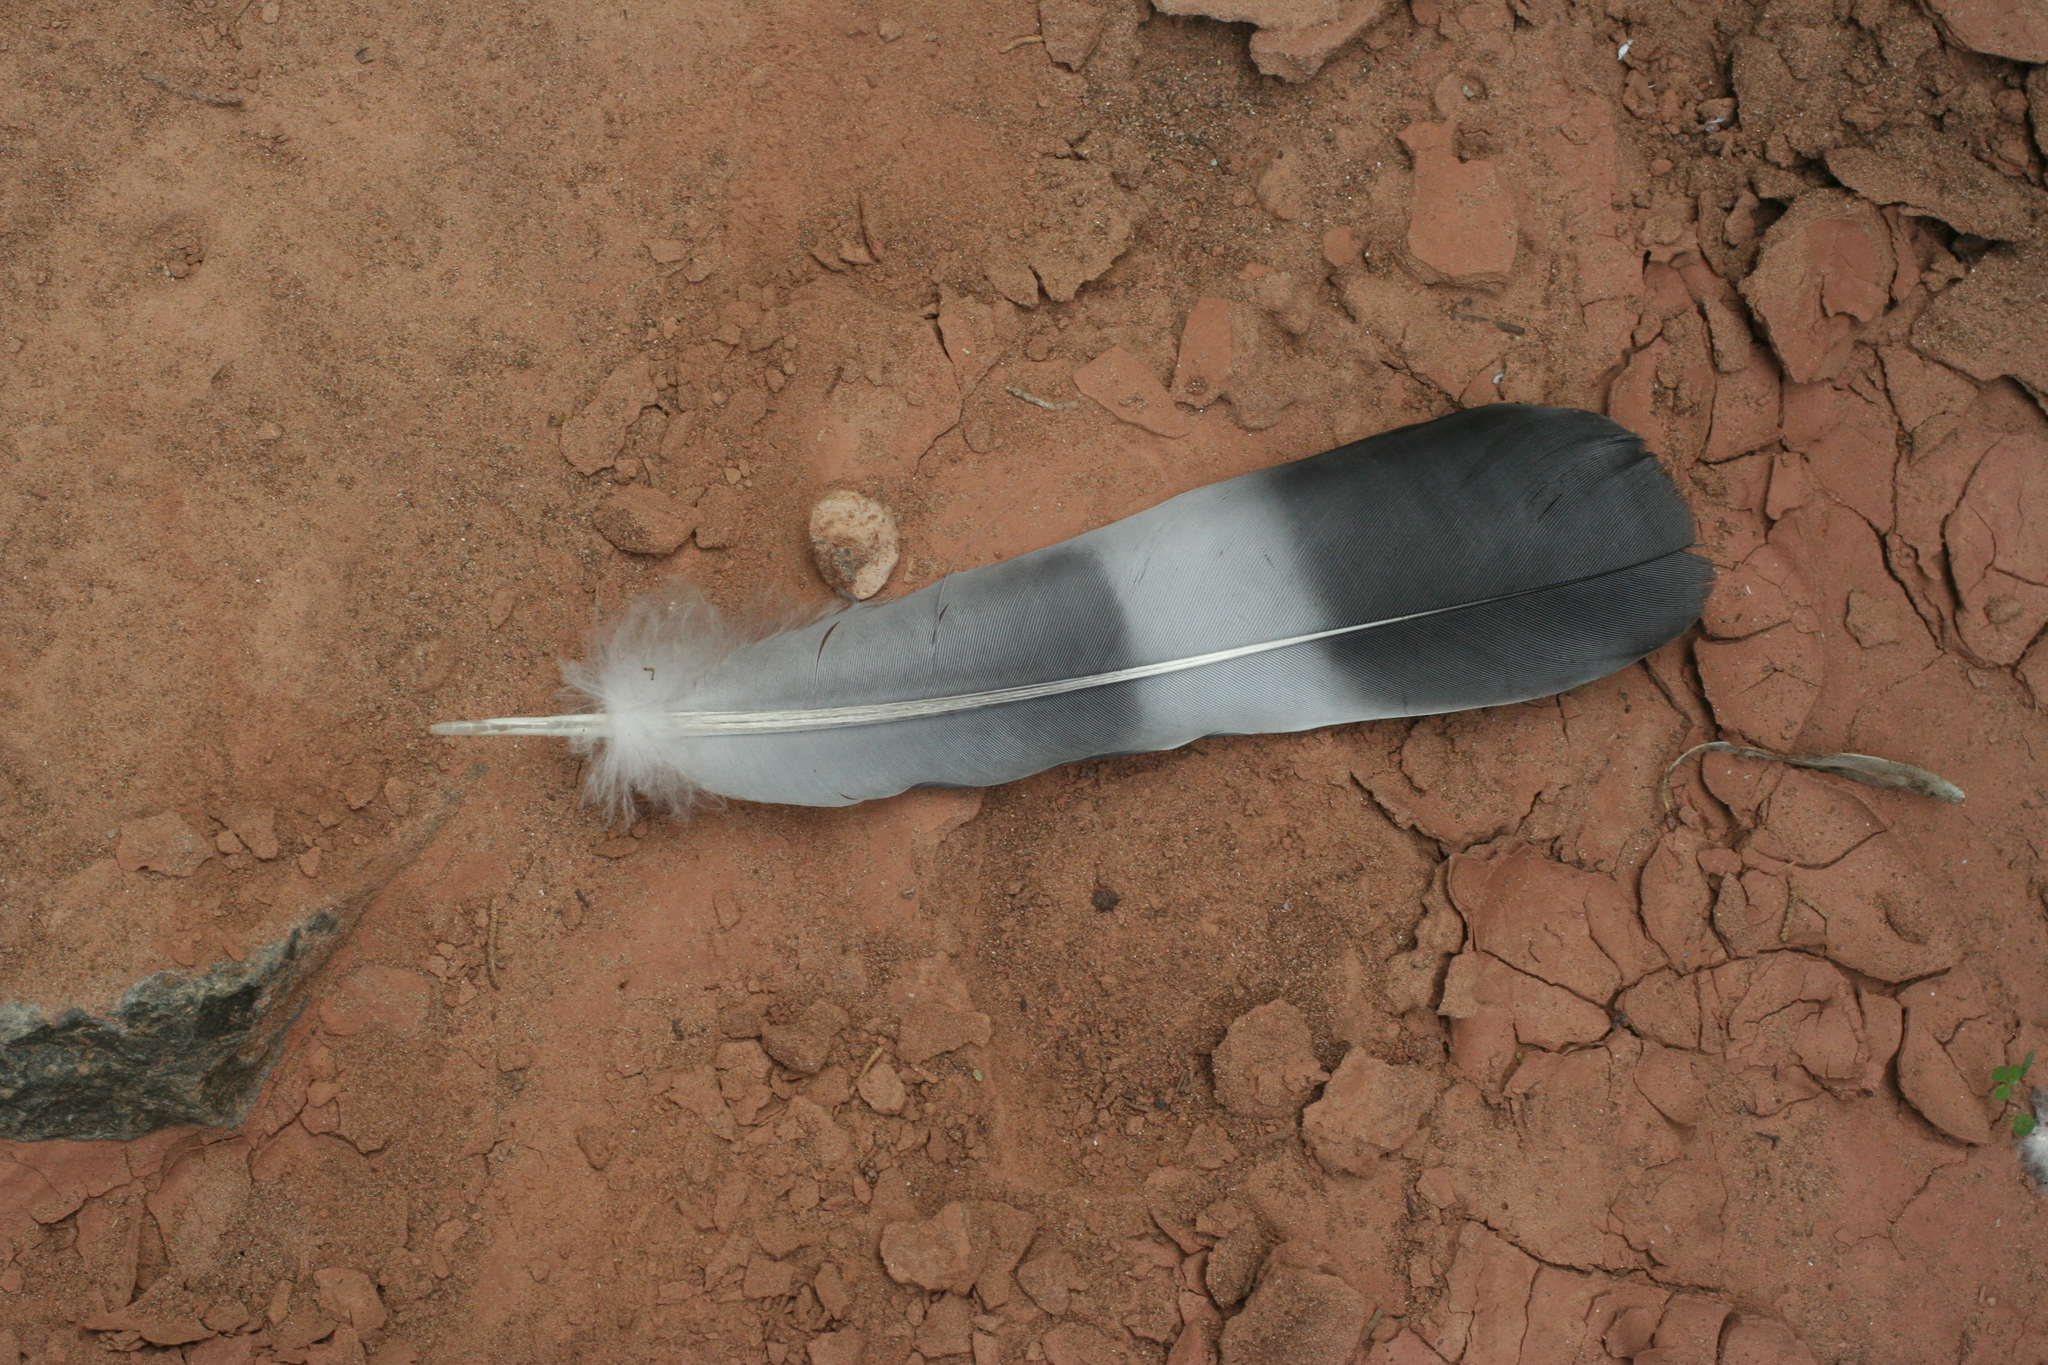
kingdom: Animalia
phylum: Chordata
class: Aves
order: Columbiformes
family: Columbidae
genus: Columba
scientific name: Columba palumbus
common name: Common wood pigeon
